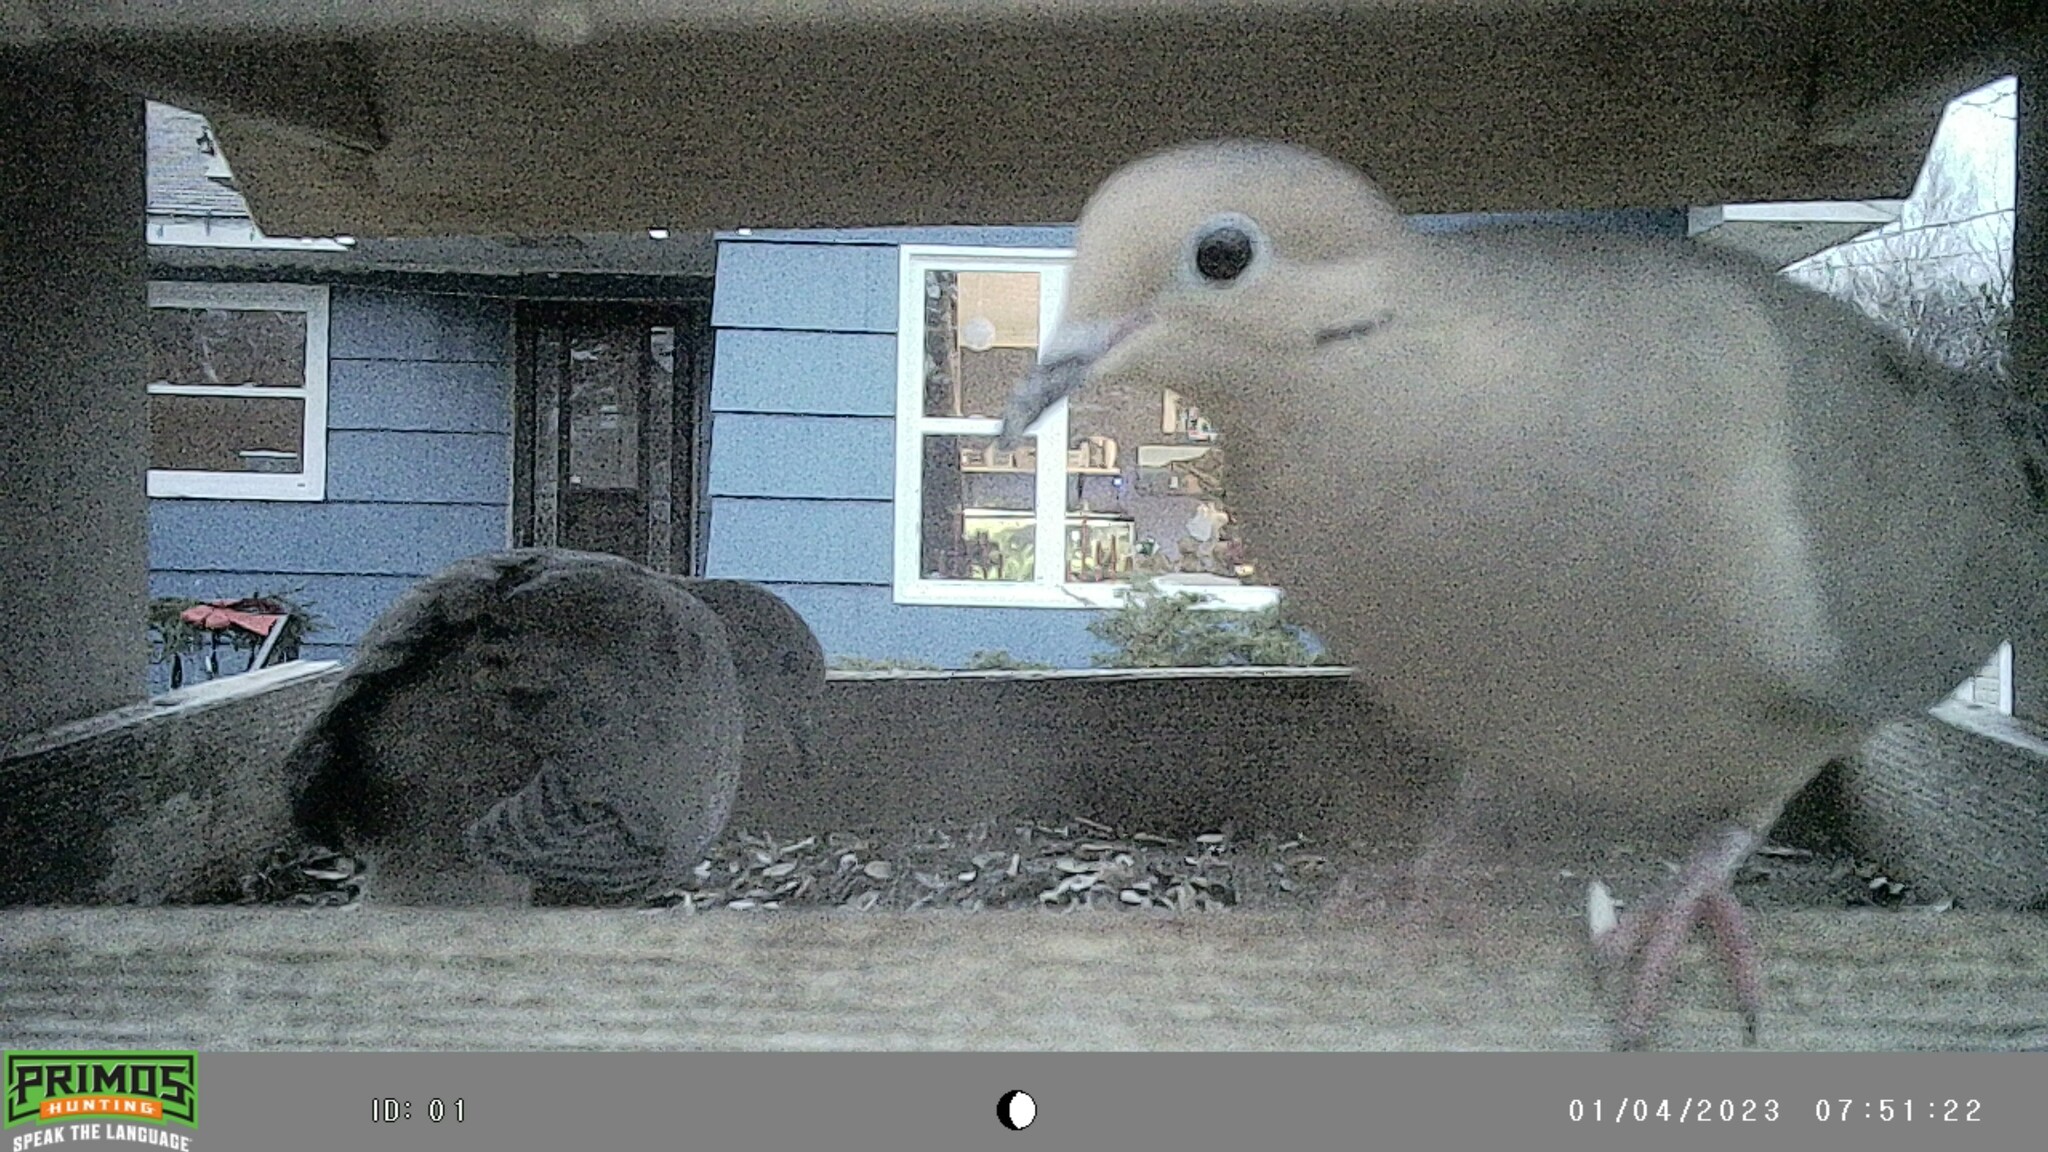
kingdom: Animalia
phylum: Chordata
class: Aves
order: Columbiformes
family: Columbidae
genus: Zenaida
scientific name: Zenaida macroura
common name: Mourning dove
